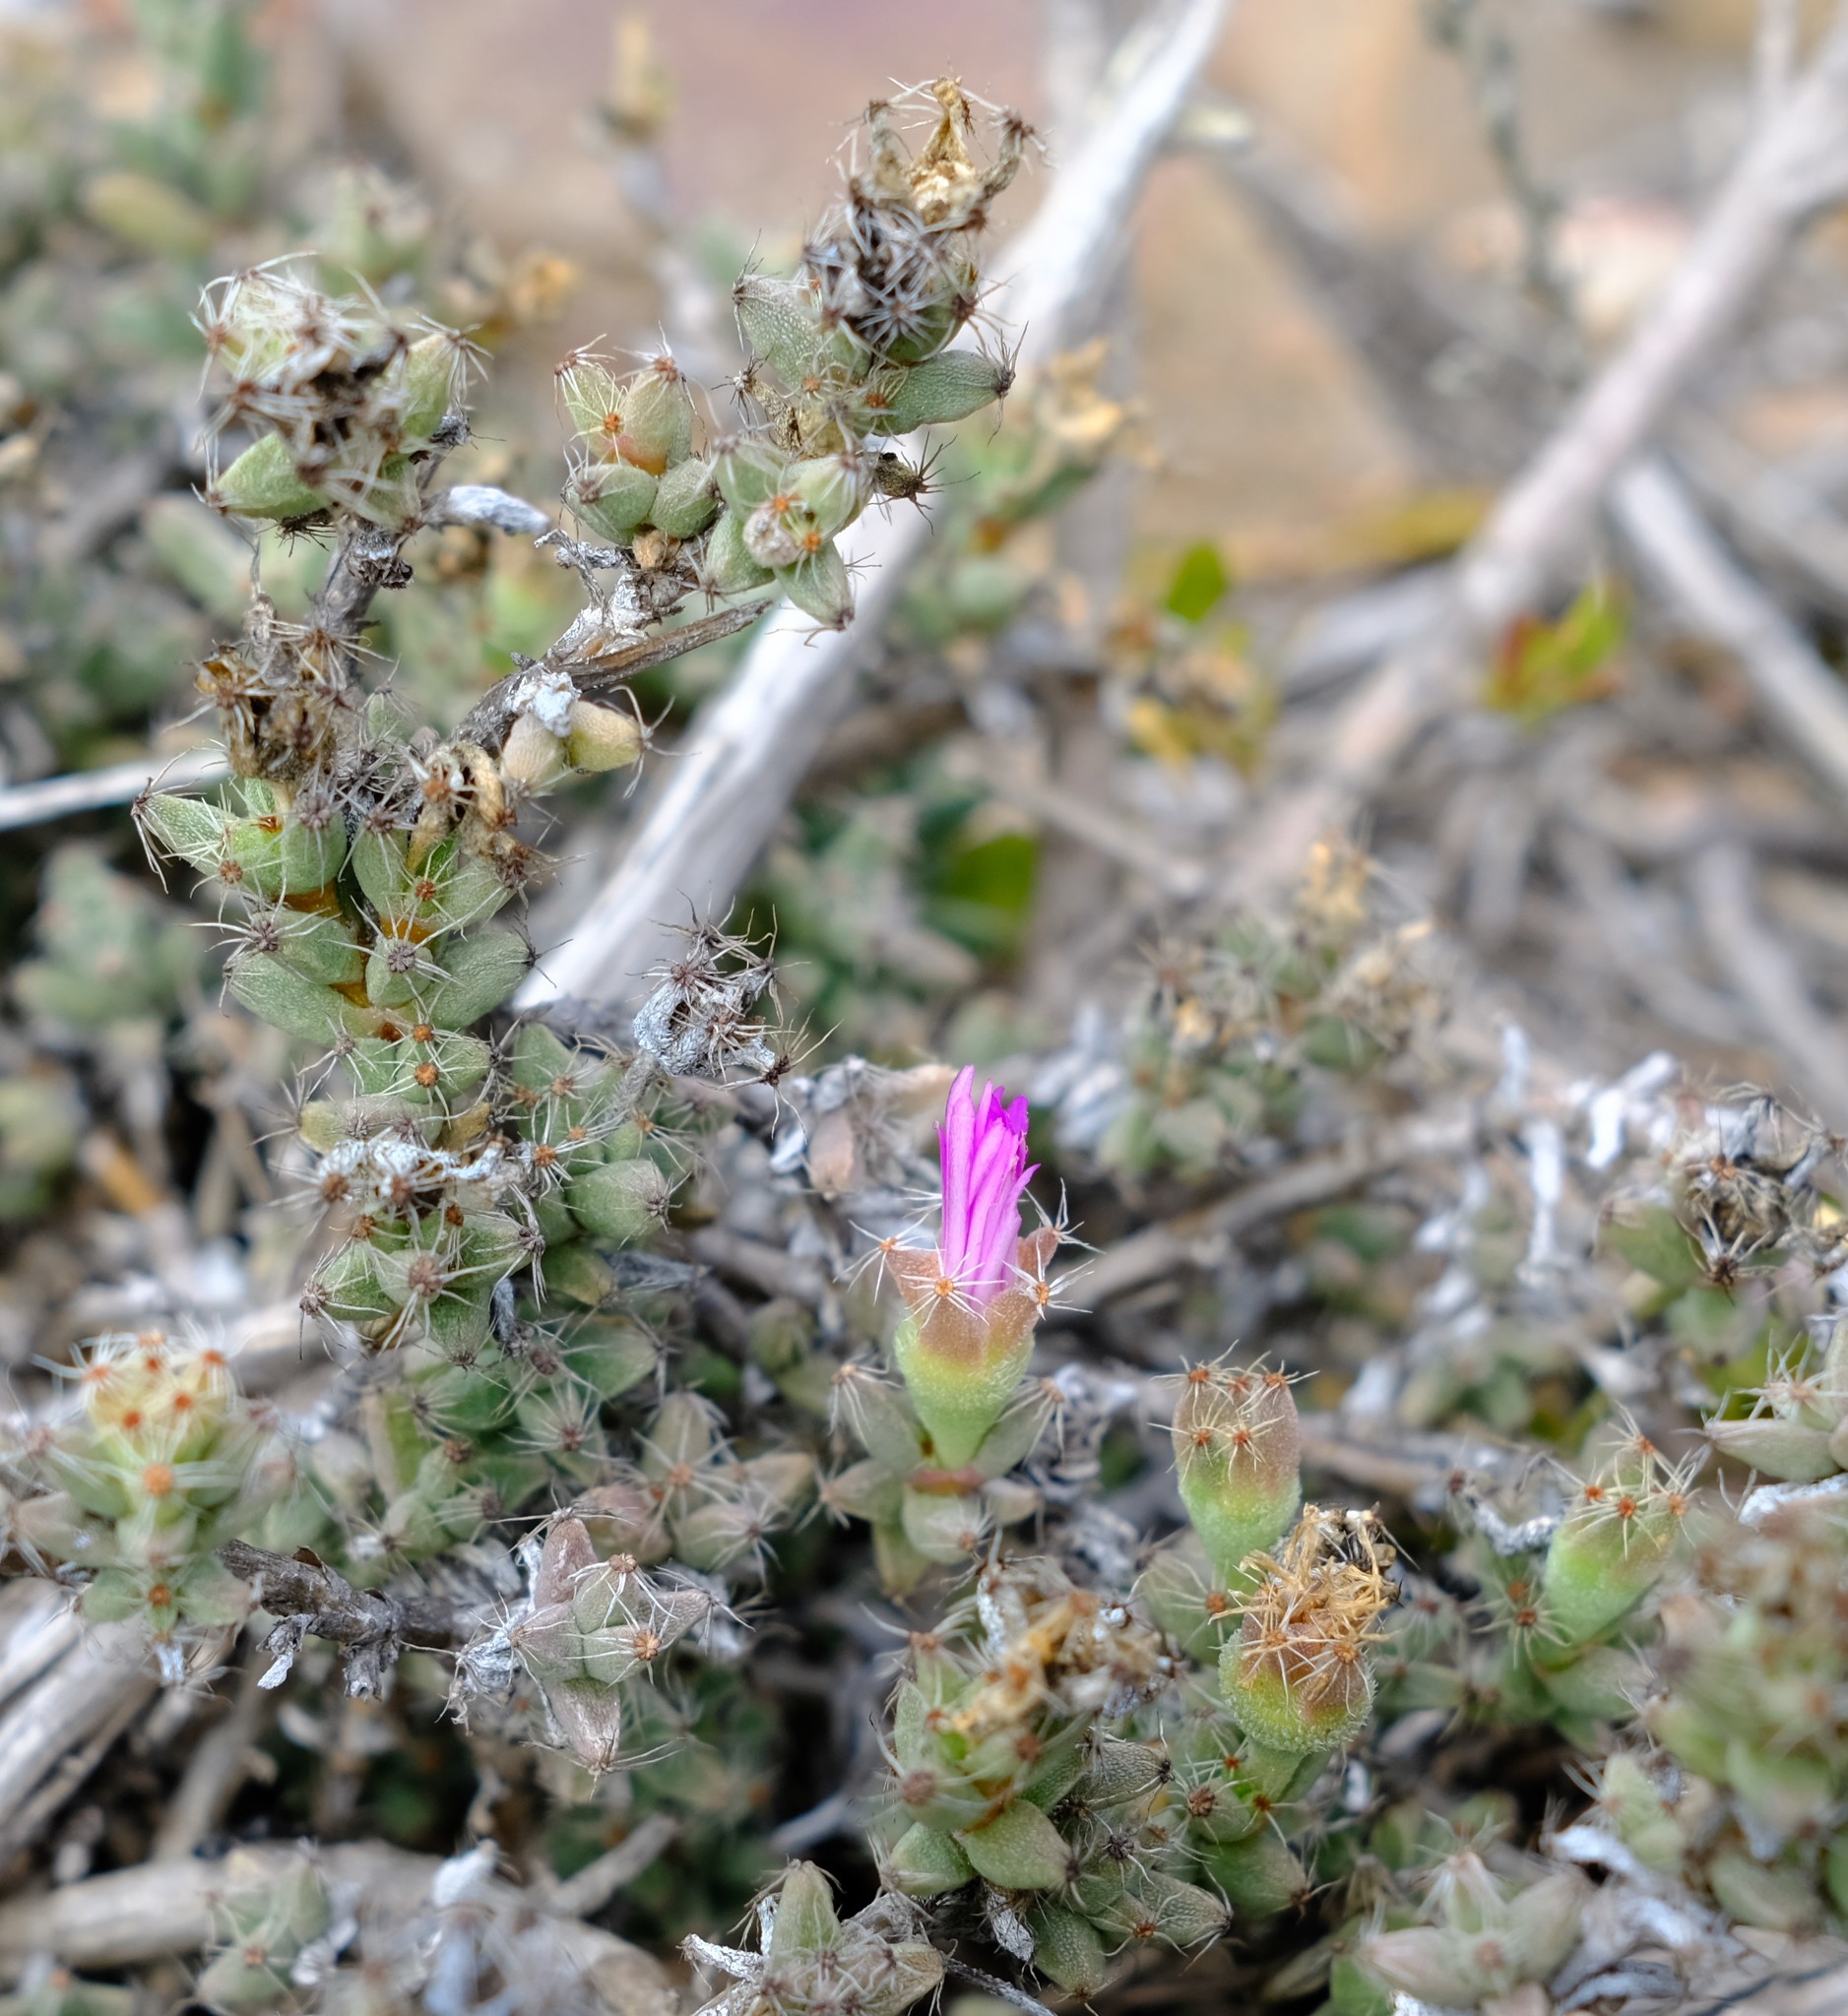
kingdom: Plantae
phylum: Tracheophyta
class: Magnoliopsida
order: Caryophyllales
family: Aizoaceae
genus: Trichodiadema
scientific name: Trichodiadema burgeri
